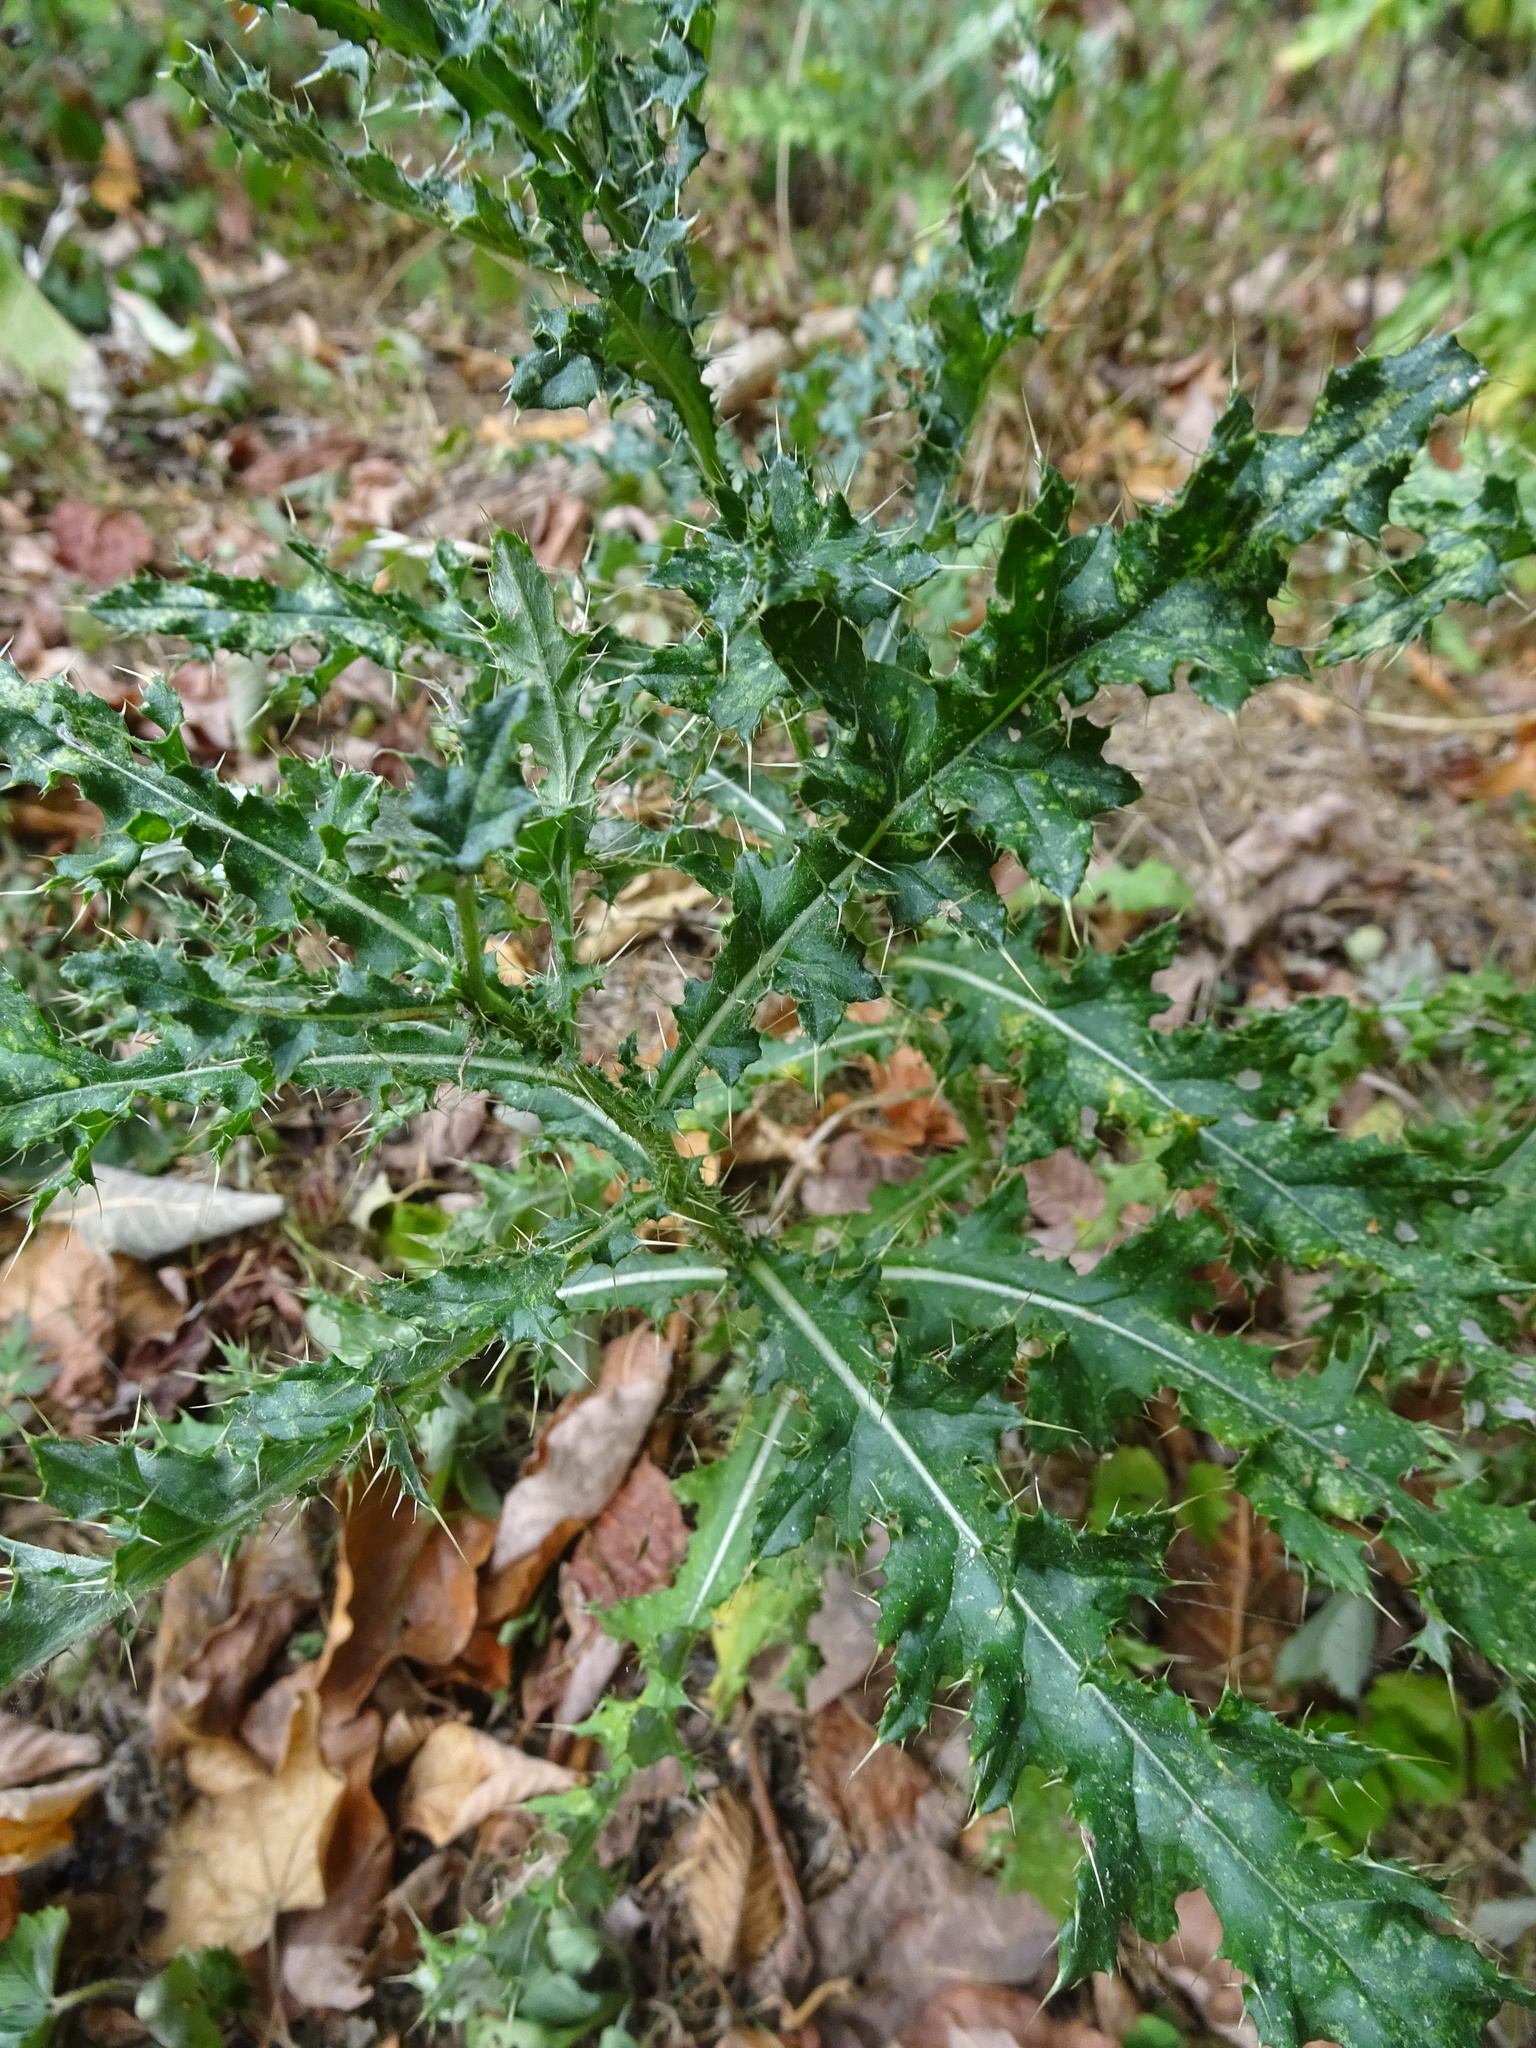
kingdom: Plantae
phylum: Tracheophyta
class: Magnoliopsida
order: Asterales
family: Asteraceae
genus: Cirsium
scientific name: Cirsium arvense
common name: Creeping thistle
